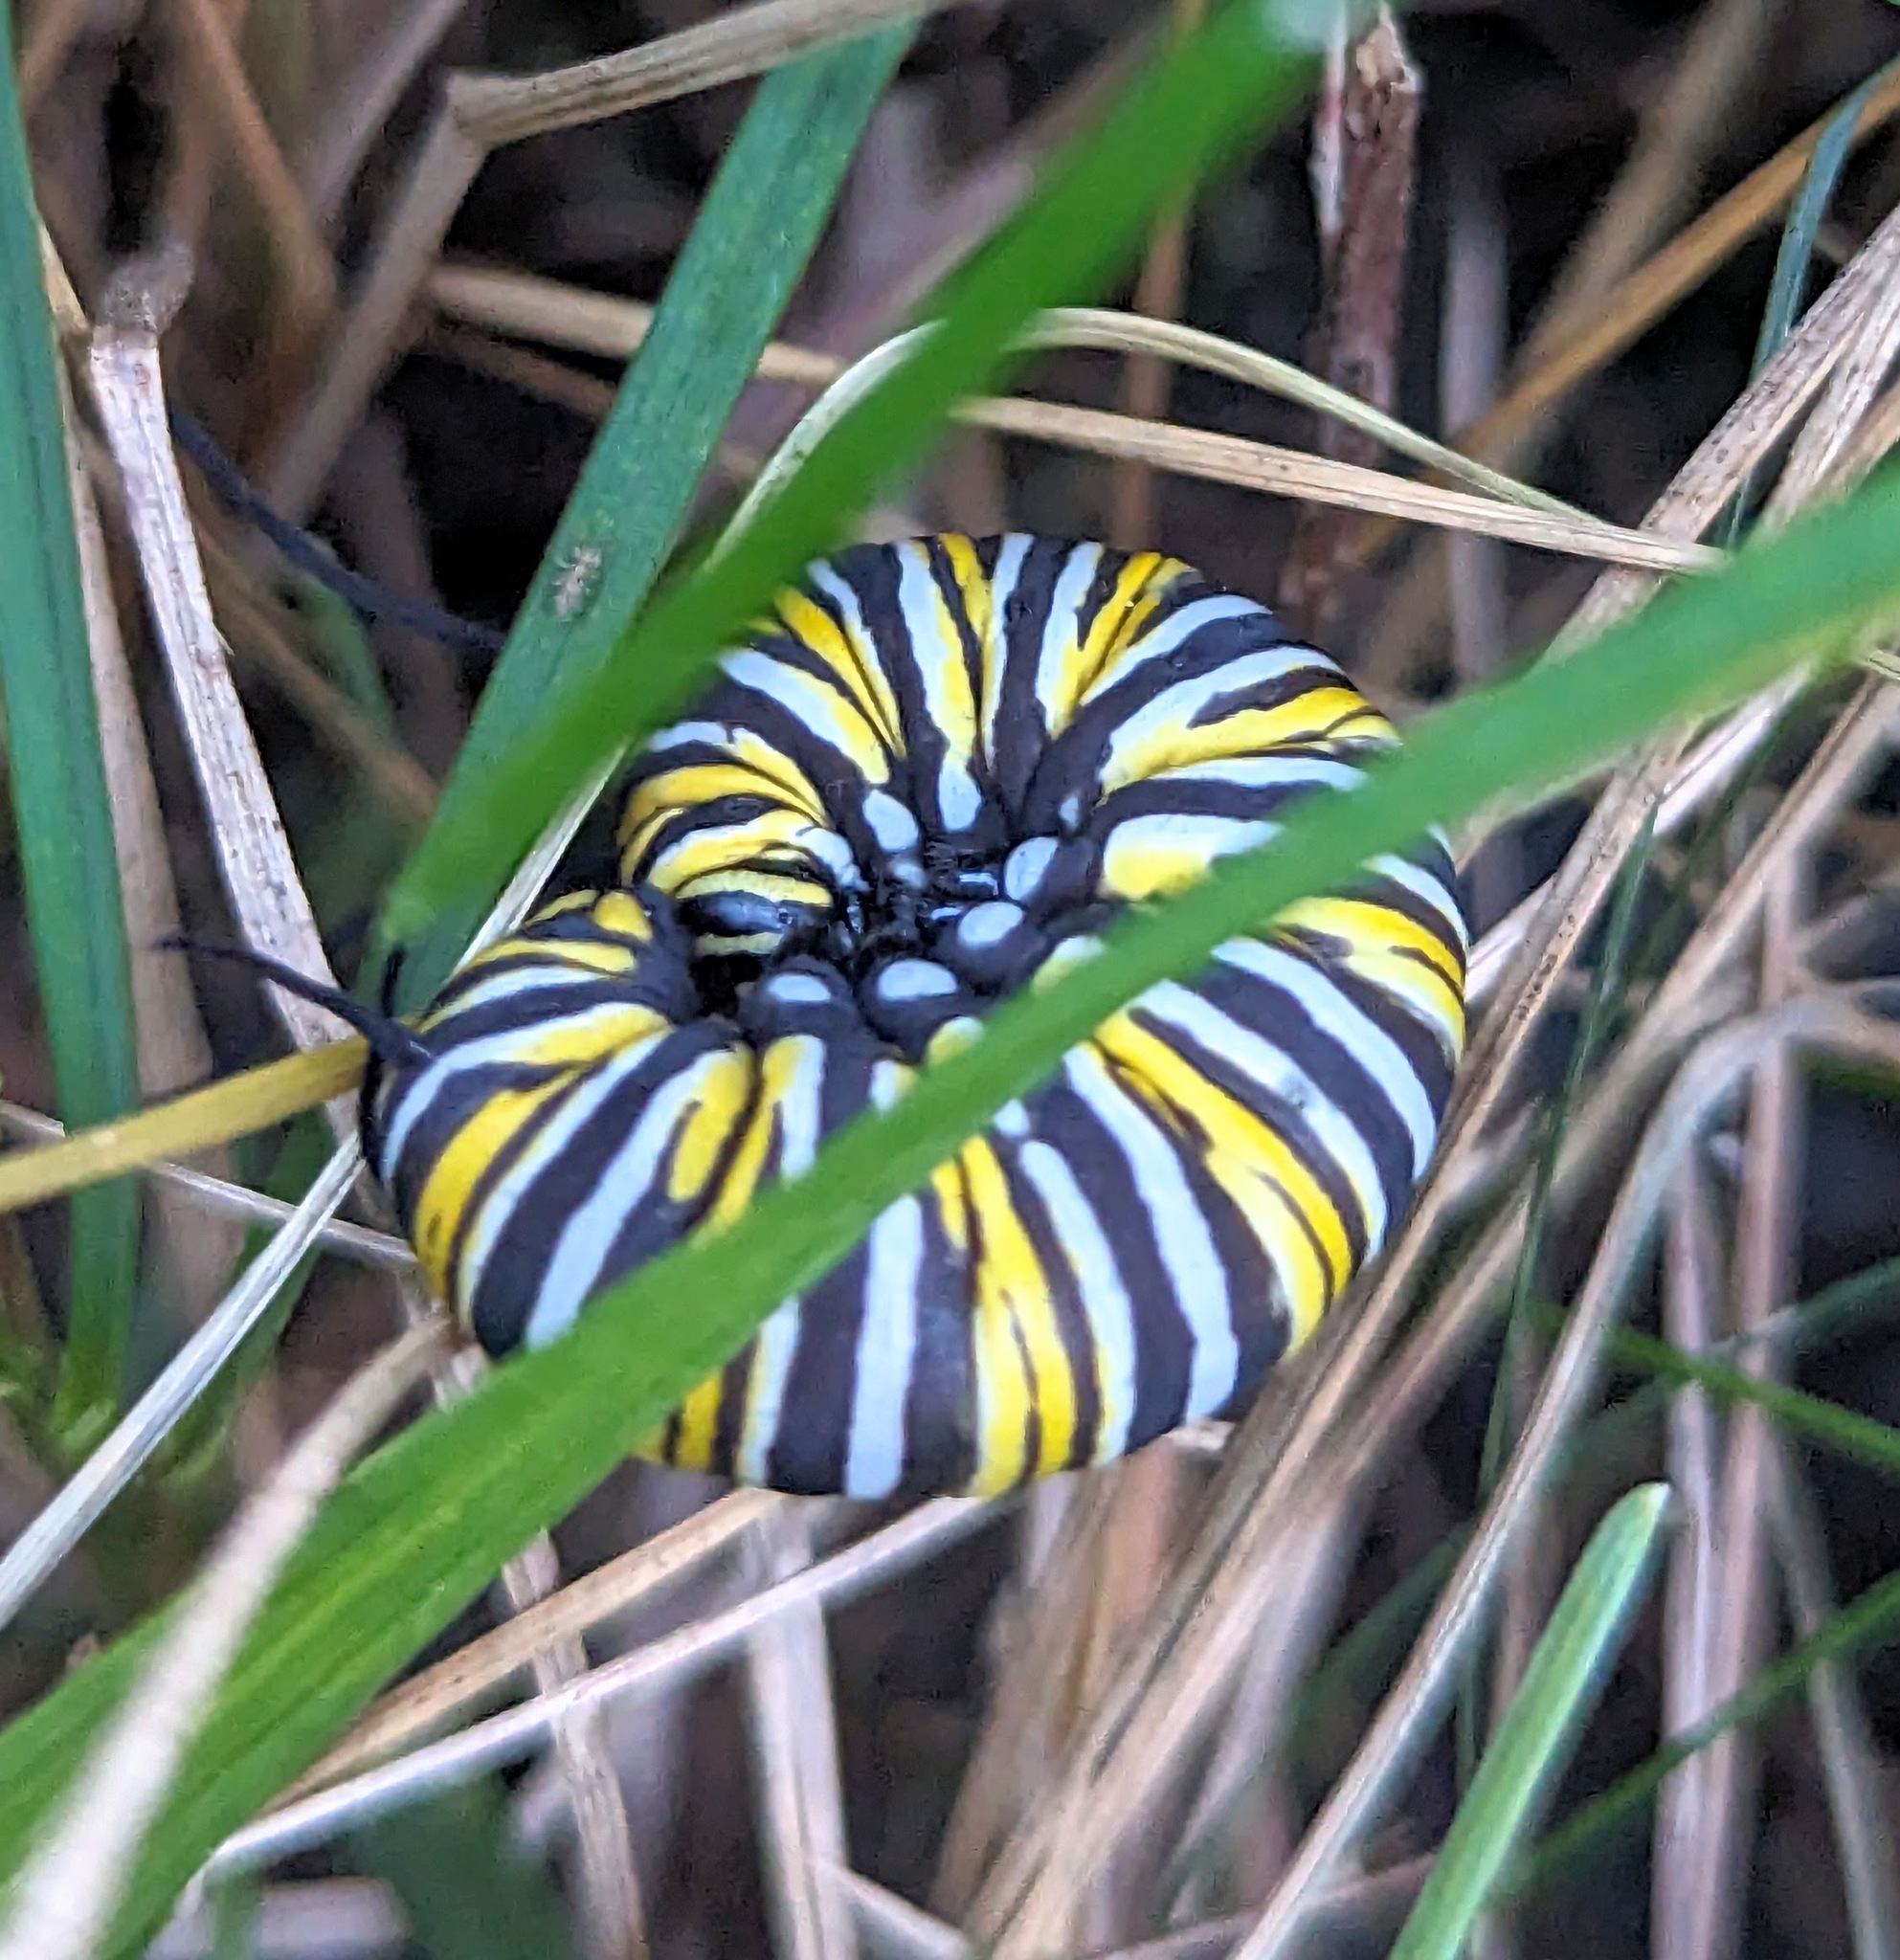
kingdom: Animalia
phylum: Arthropoda
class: Insecta
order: Lepidoptera
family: Nymphalidae
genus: Danaus
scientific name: Danaus plexippus
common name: Monarch
